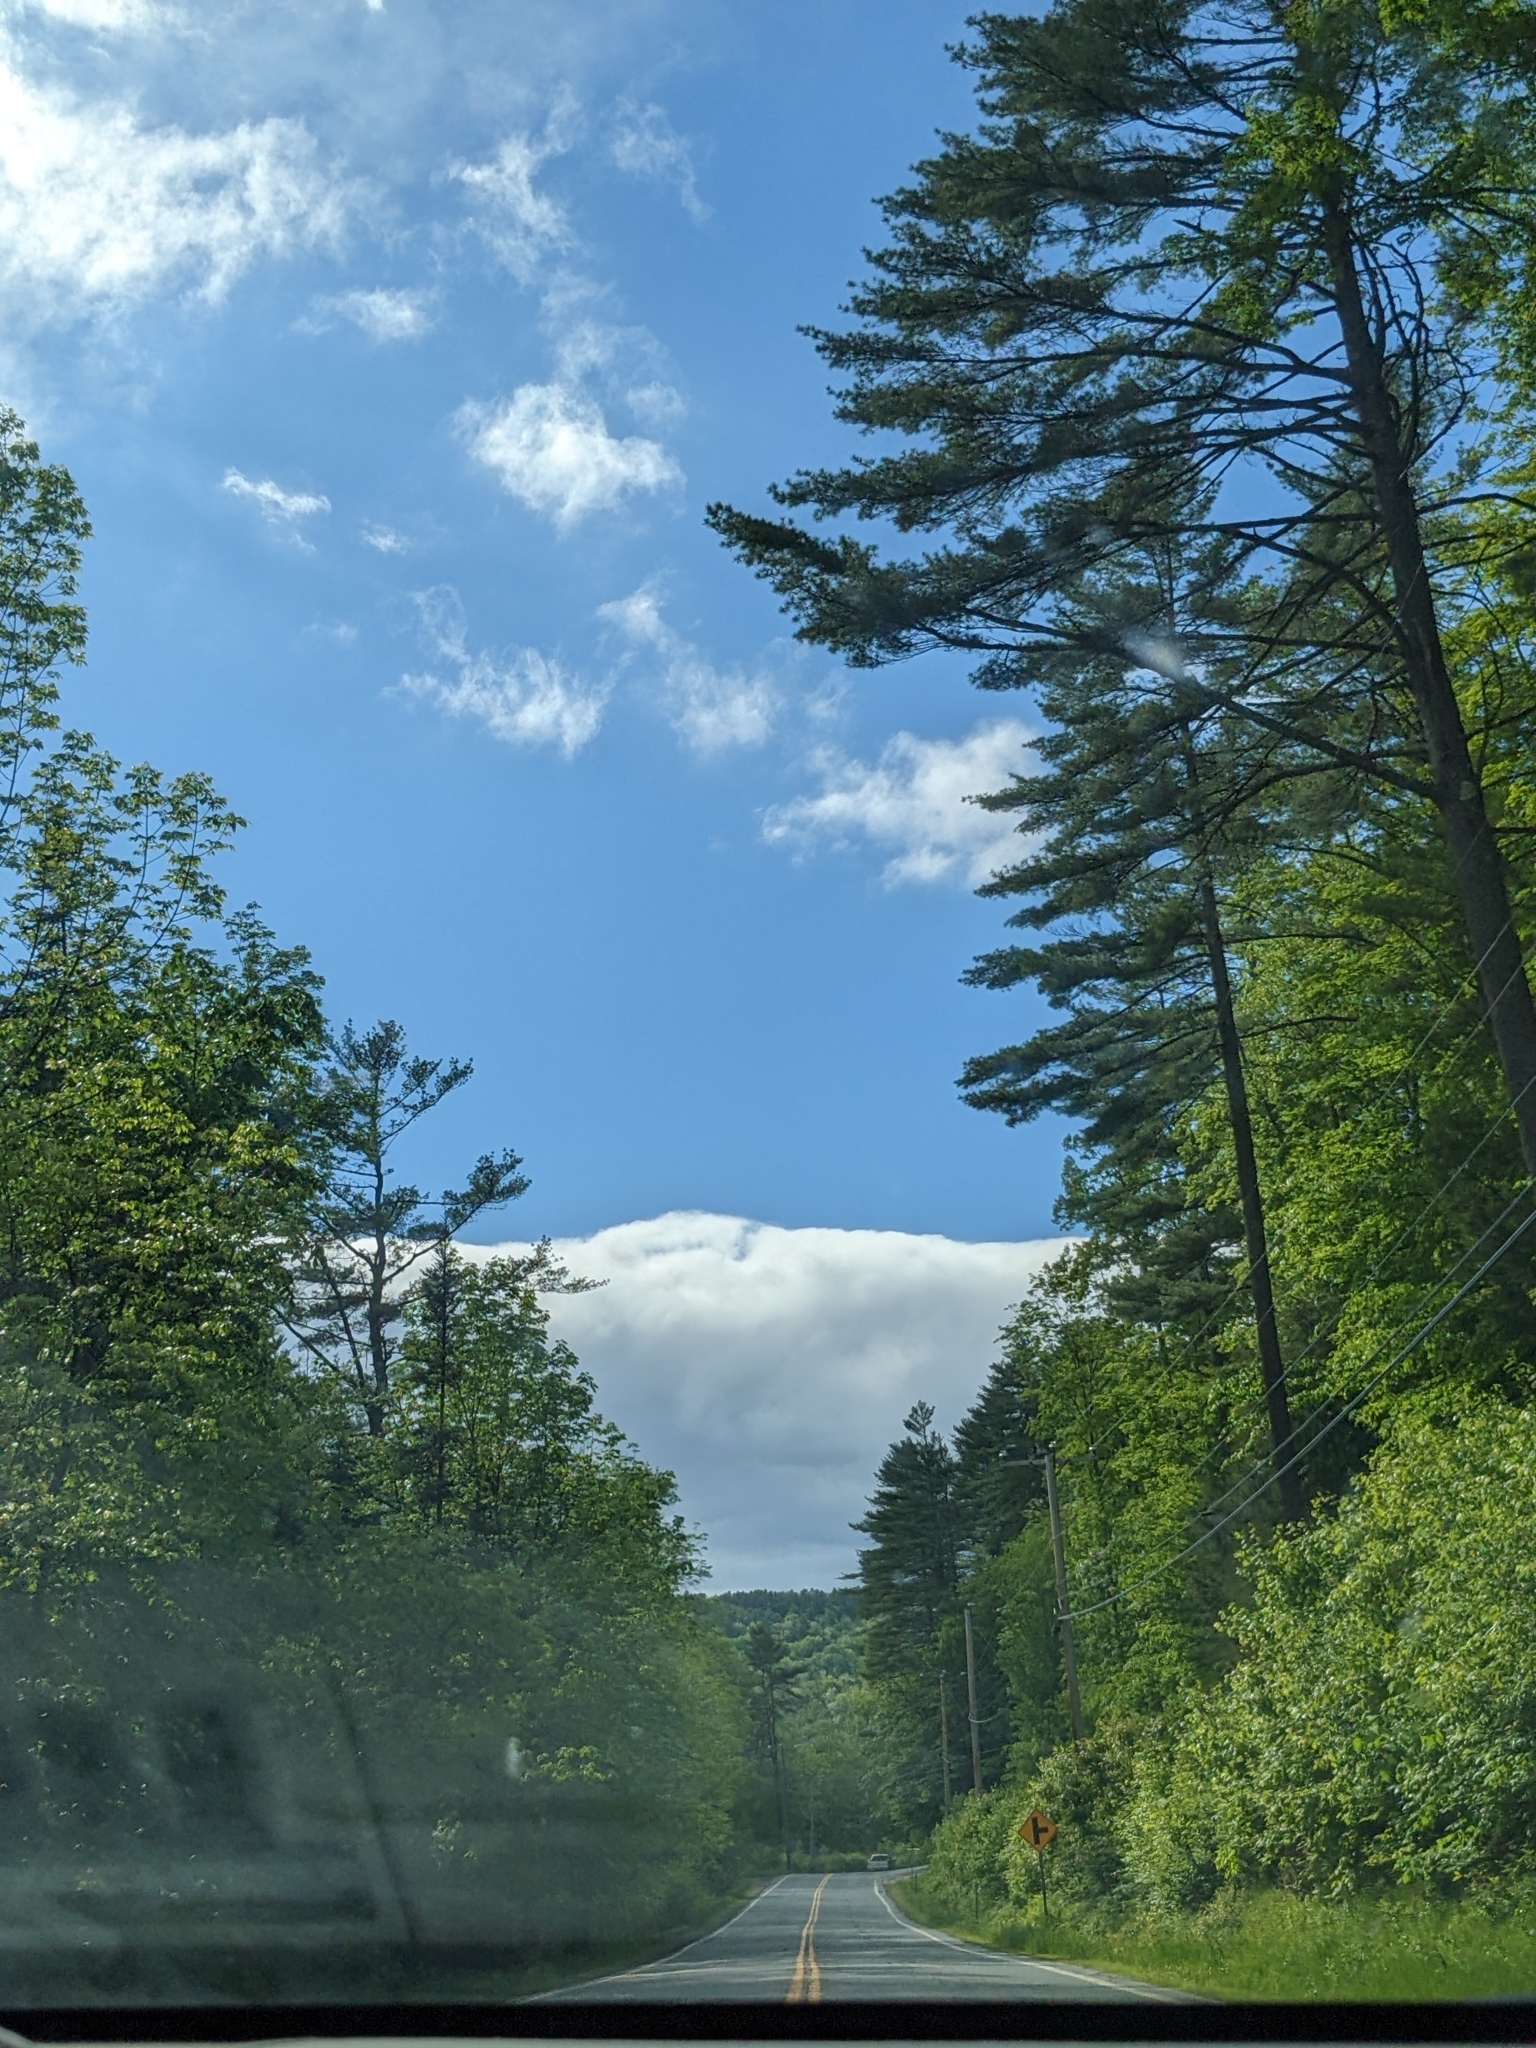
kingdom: Plantae
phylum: Tracheophyta
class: Pinopsida
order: Pinales
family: Pinaceae
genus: Pinus
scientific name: Pinus strobus
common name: Weymouth pine
